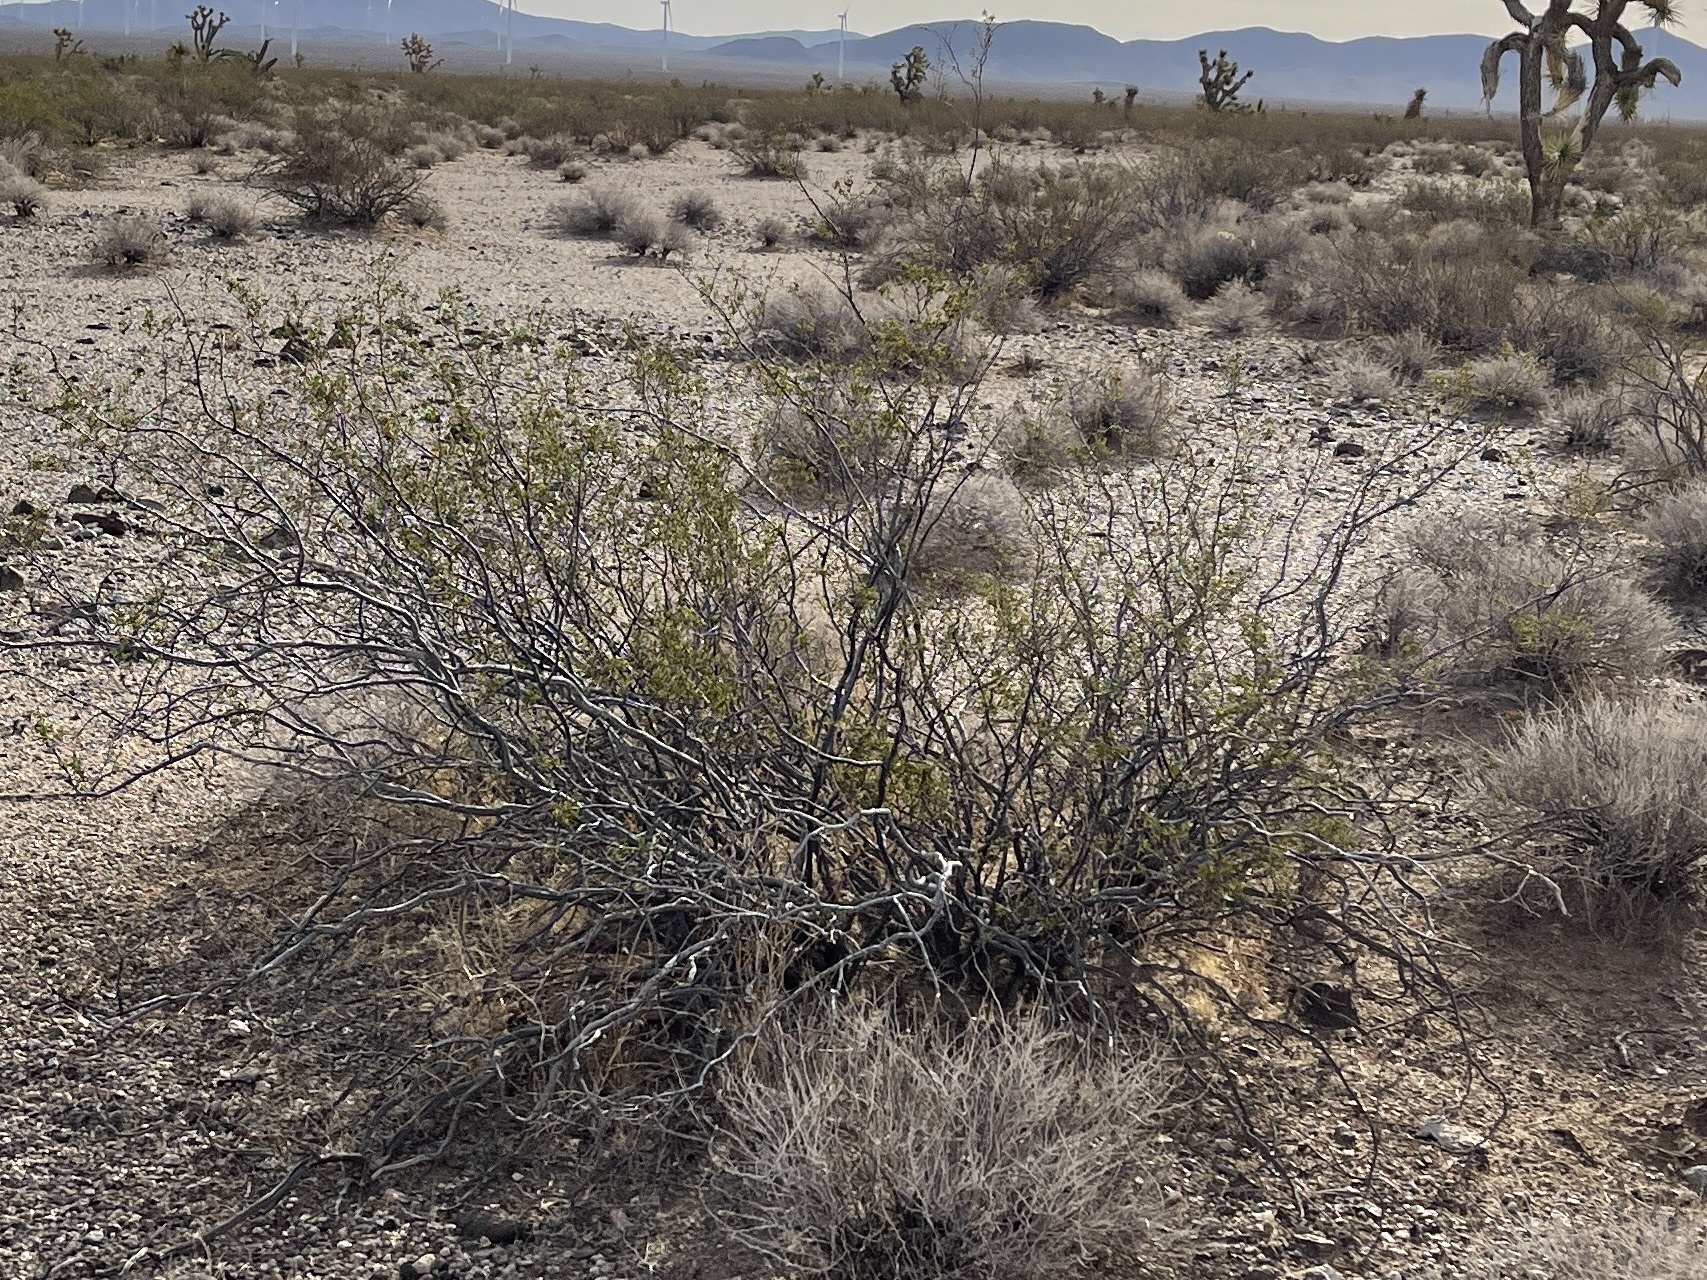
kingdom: Plantae
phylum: Tracheophyta
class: Magnoliopsida
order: Zygophyllales
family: Zygophyllaceae
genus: Larrea
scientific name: Larrea tridentata
